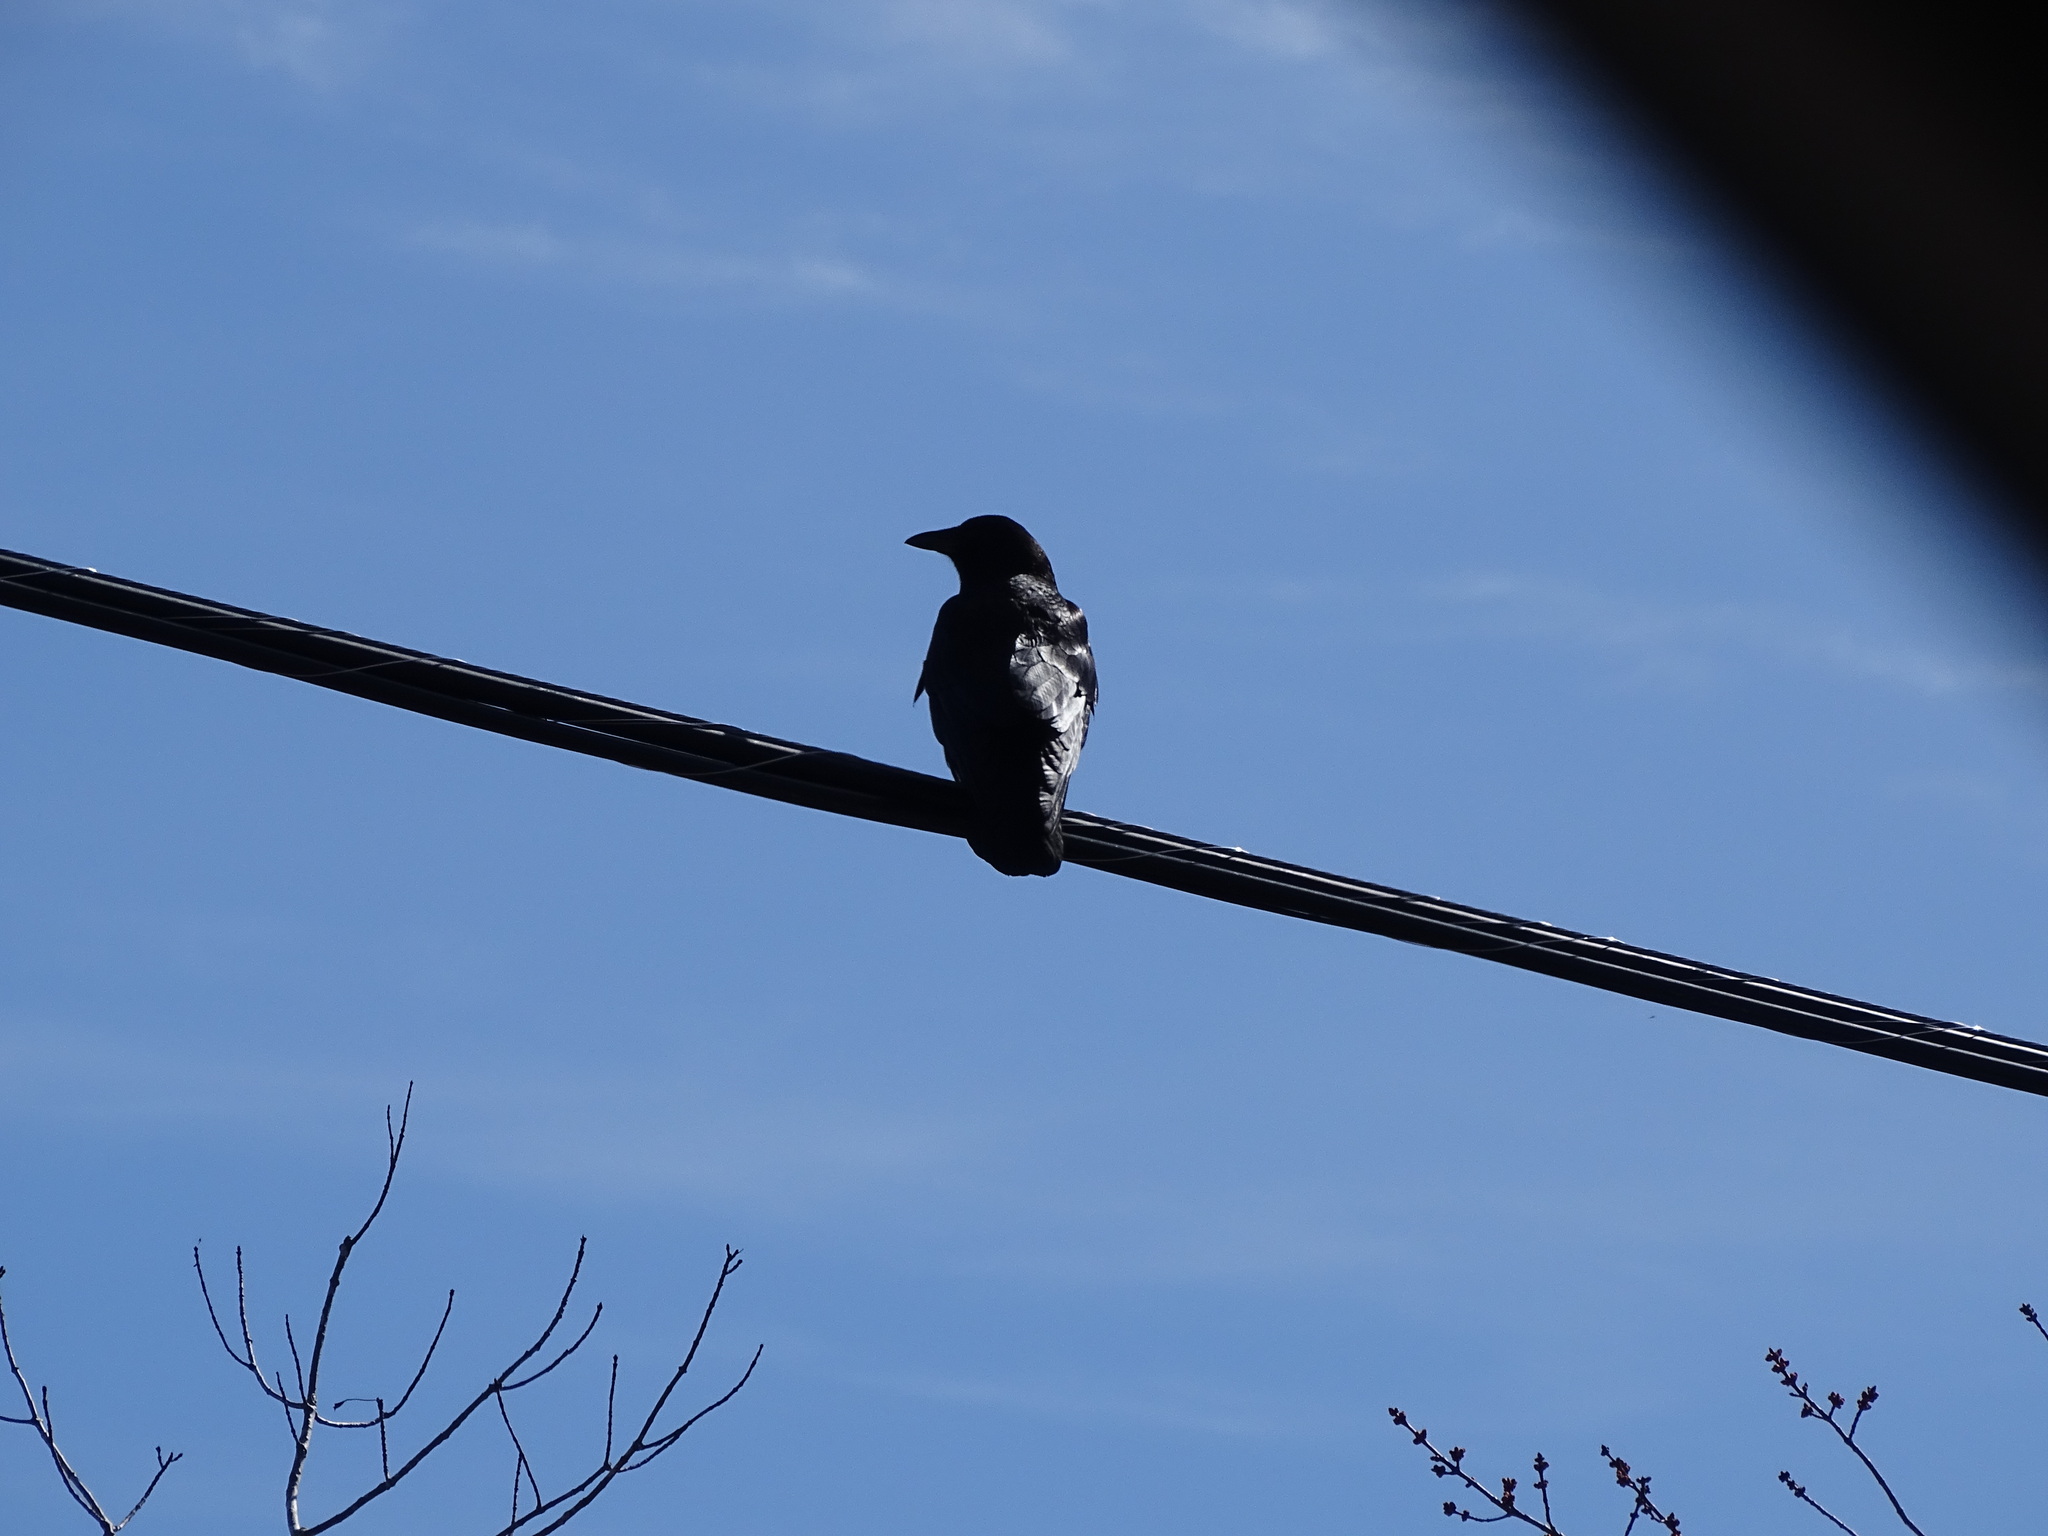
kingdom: Animalia
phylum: Chordata
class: Aves
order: Passeriformes
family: Corvidae
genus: Corvus
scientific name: Corvus brachyrhynchos
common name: American crow
